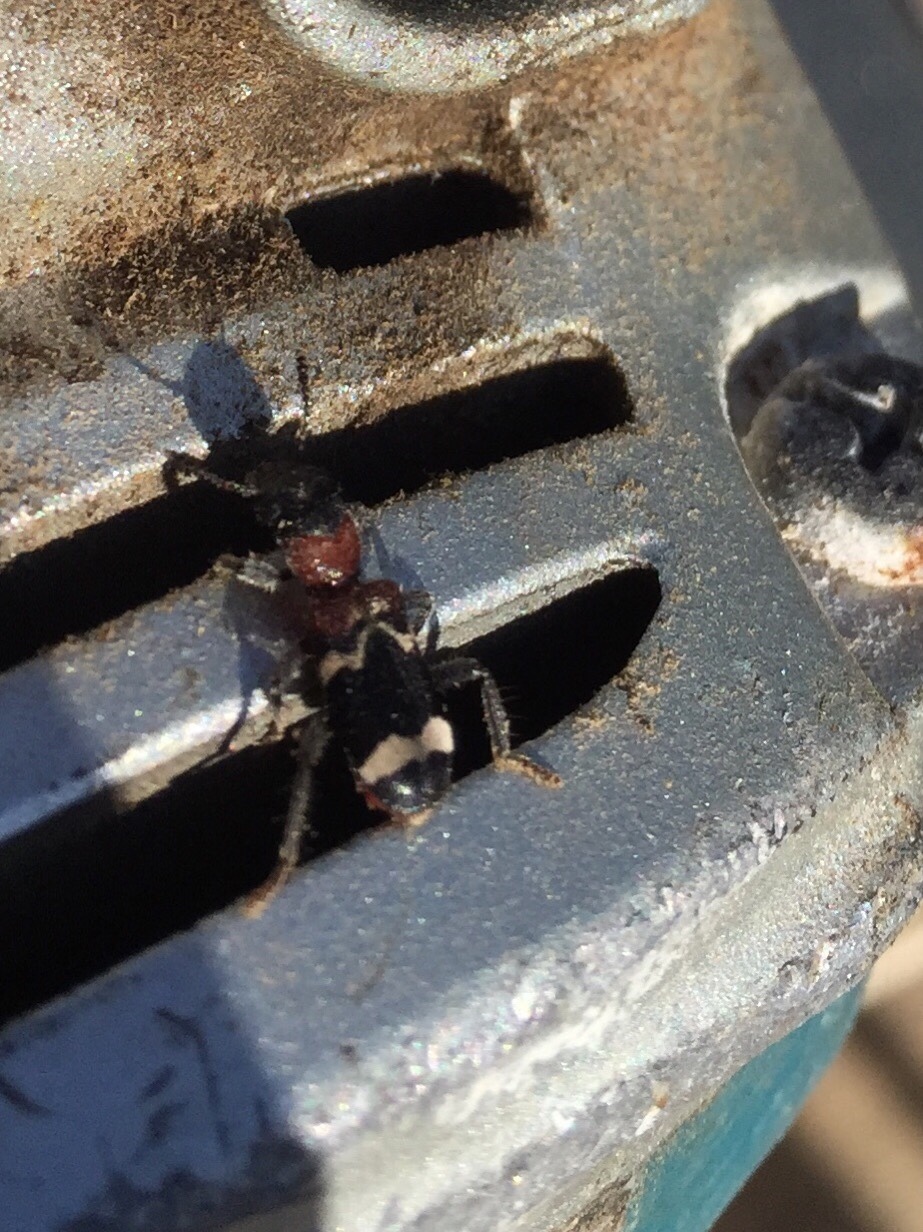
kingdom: Animalia
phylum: Arthropoda
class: Insecta
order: Coleoptera
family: Cleridae
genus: Thanasimus
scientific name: Thanasimus formicarius
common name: Ant beetle
